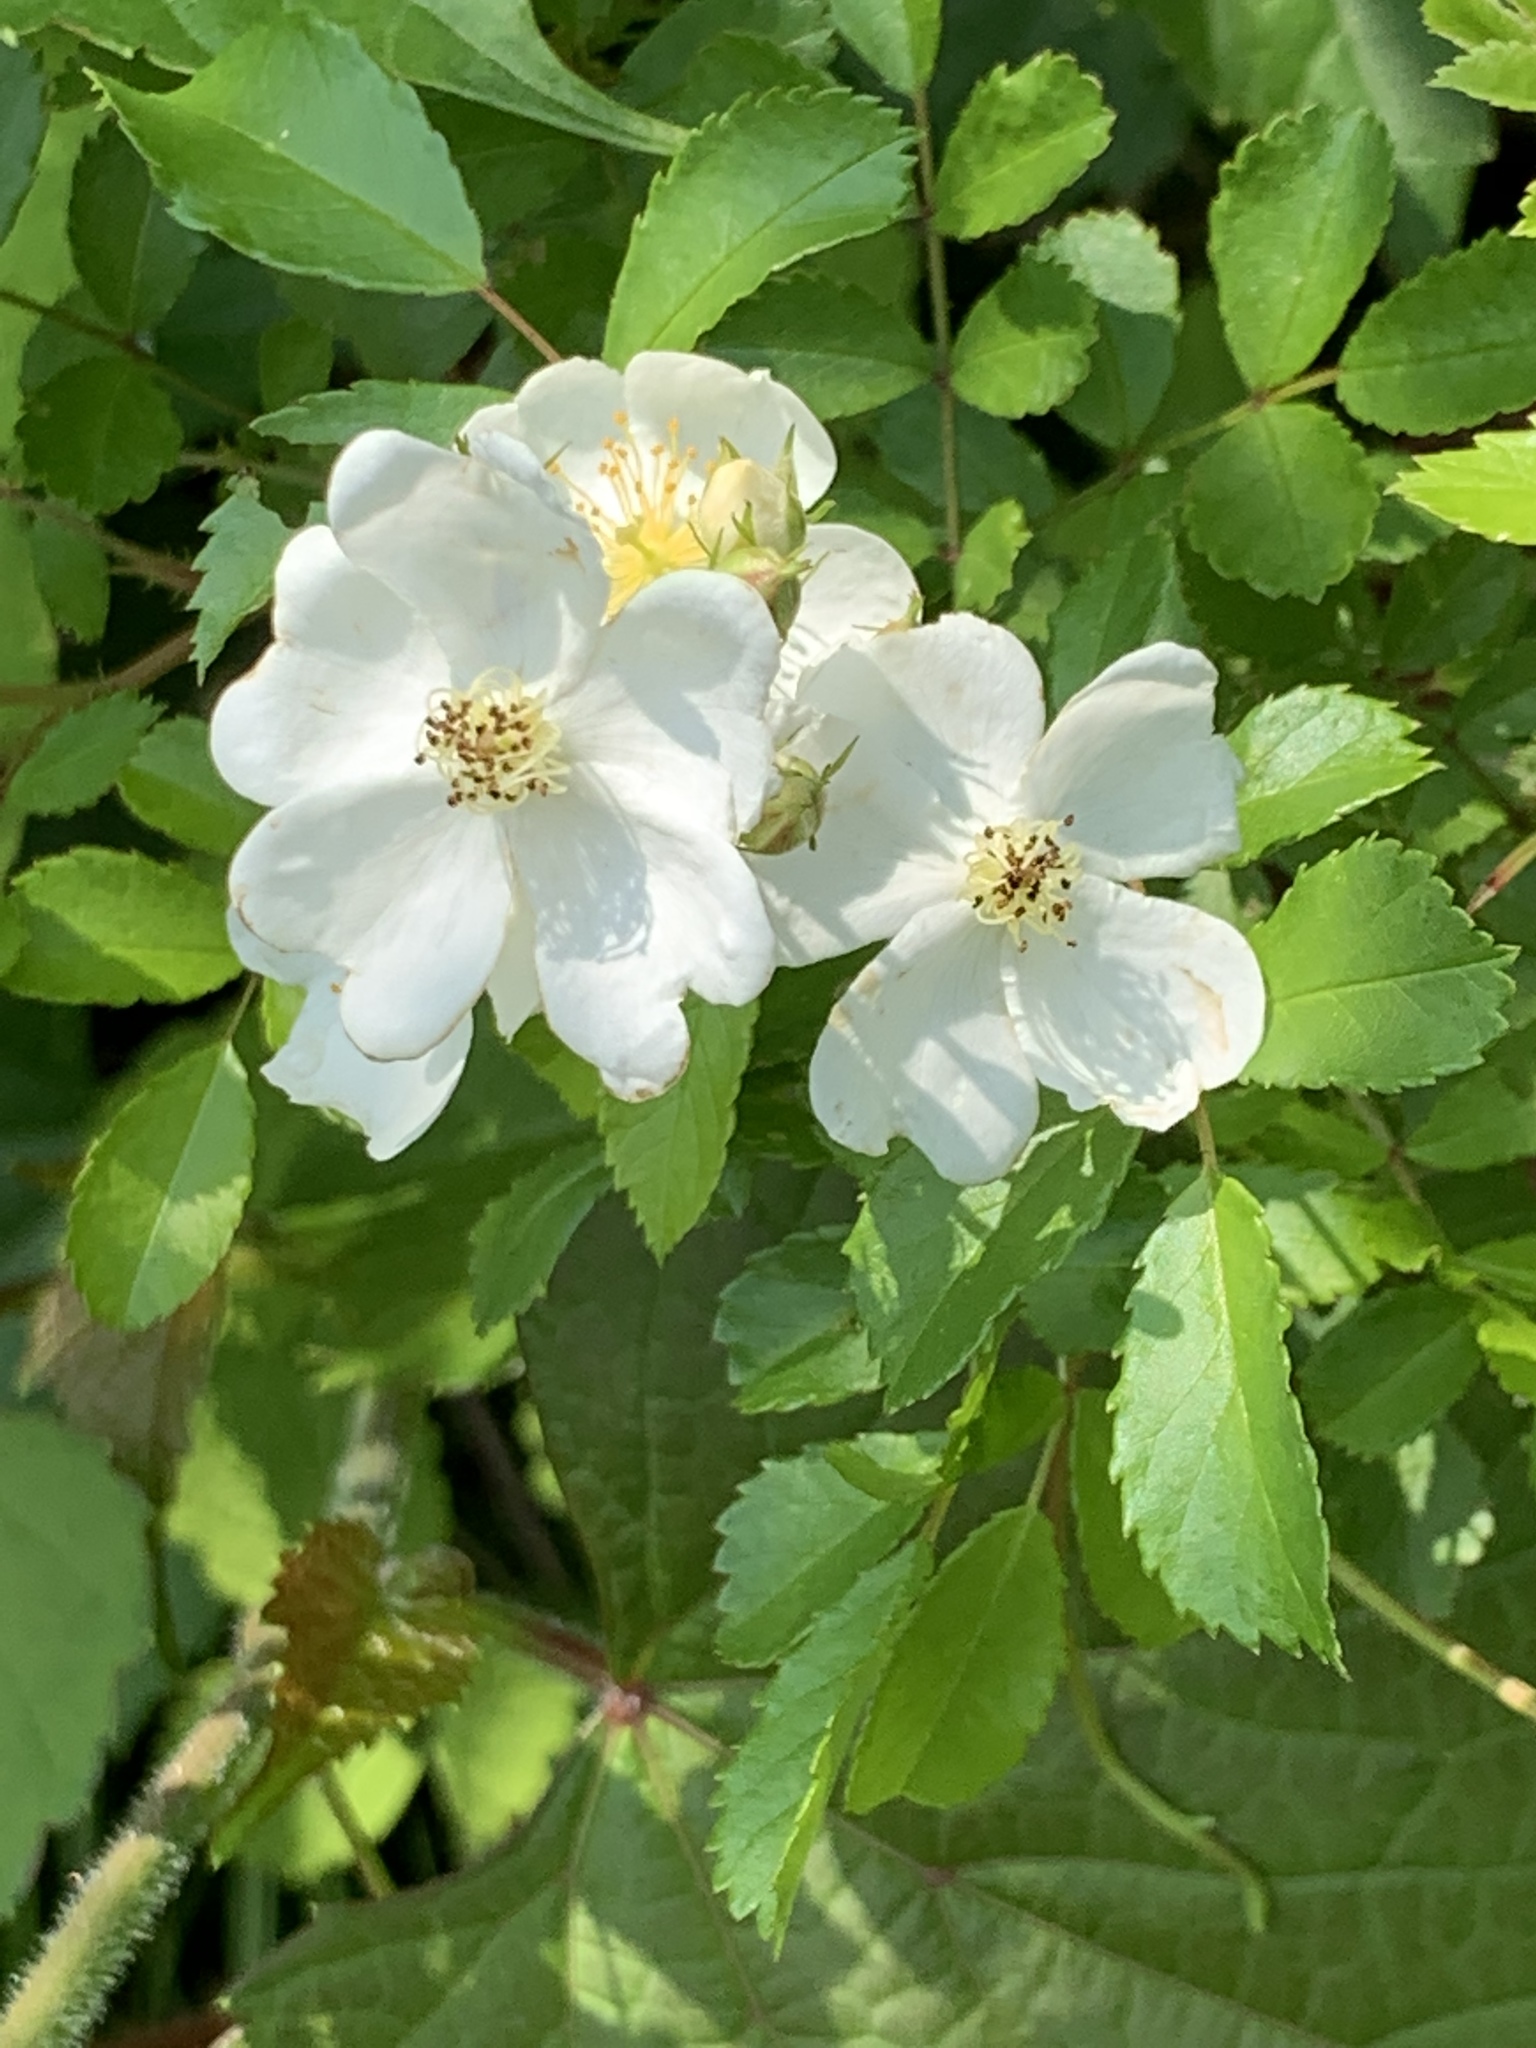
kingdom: Plantae
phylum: Tracheophyta
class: Magnoliopsida
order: Rosales
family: Rosaceae
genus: Rosa
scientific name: Rosa multiflora
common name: Multiflora rose
